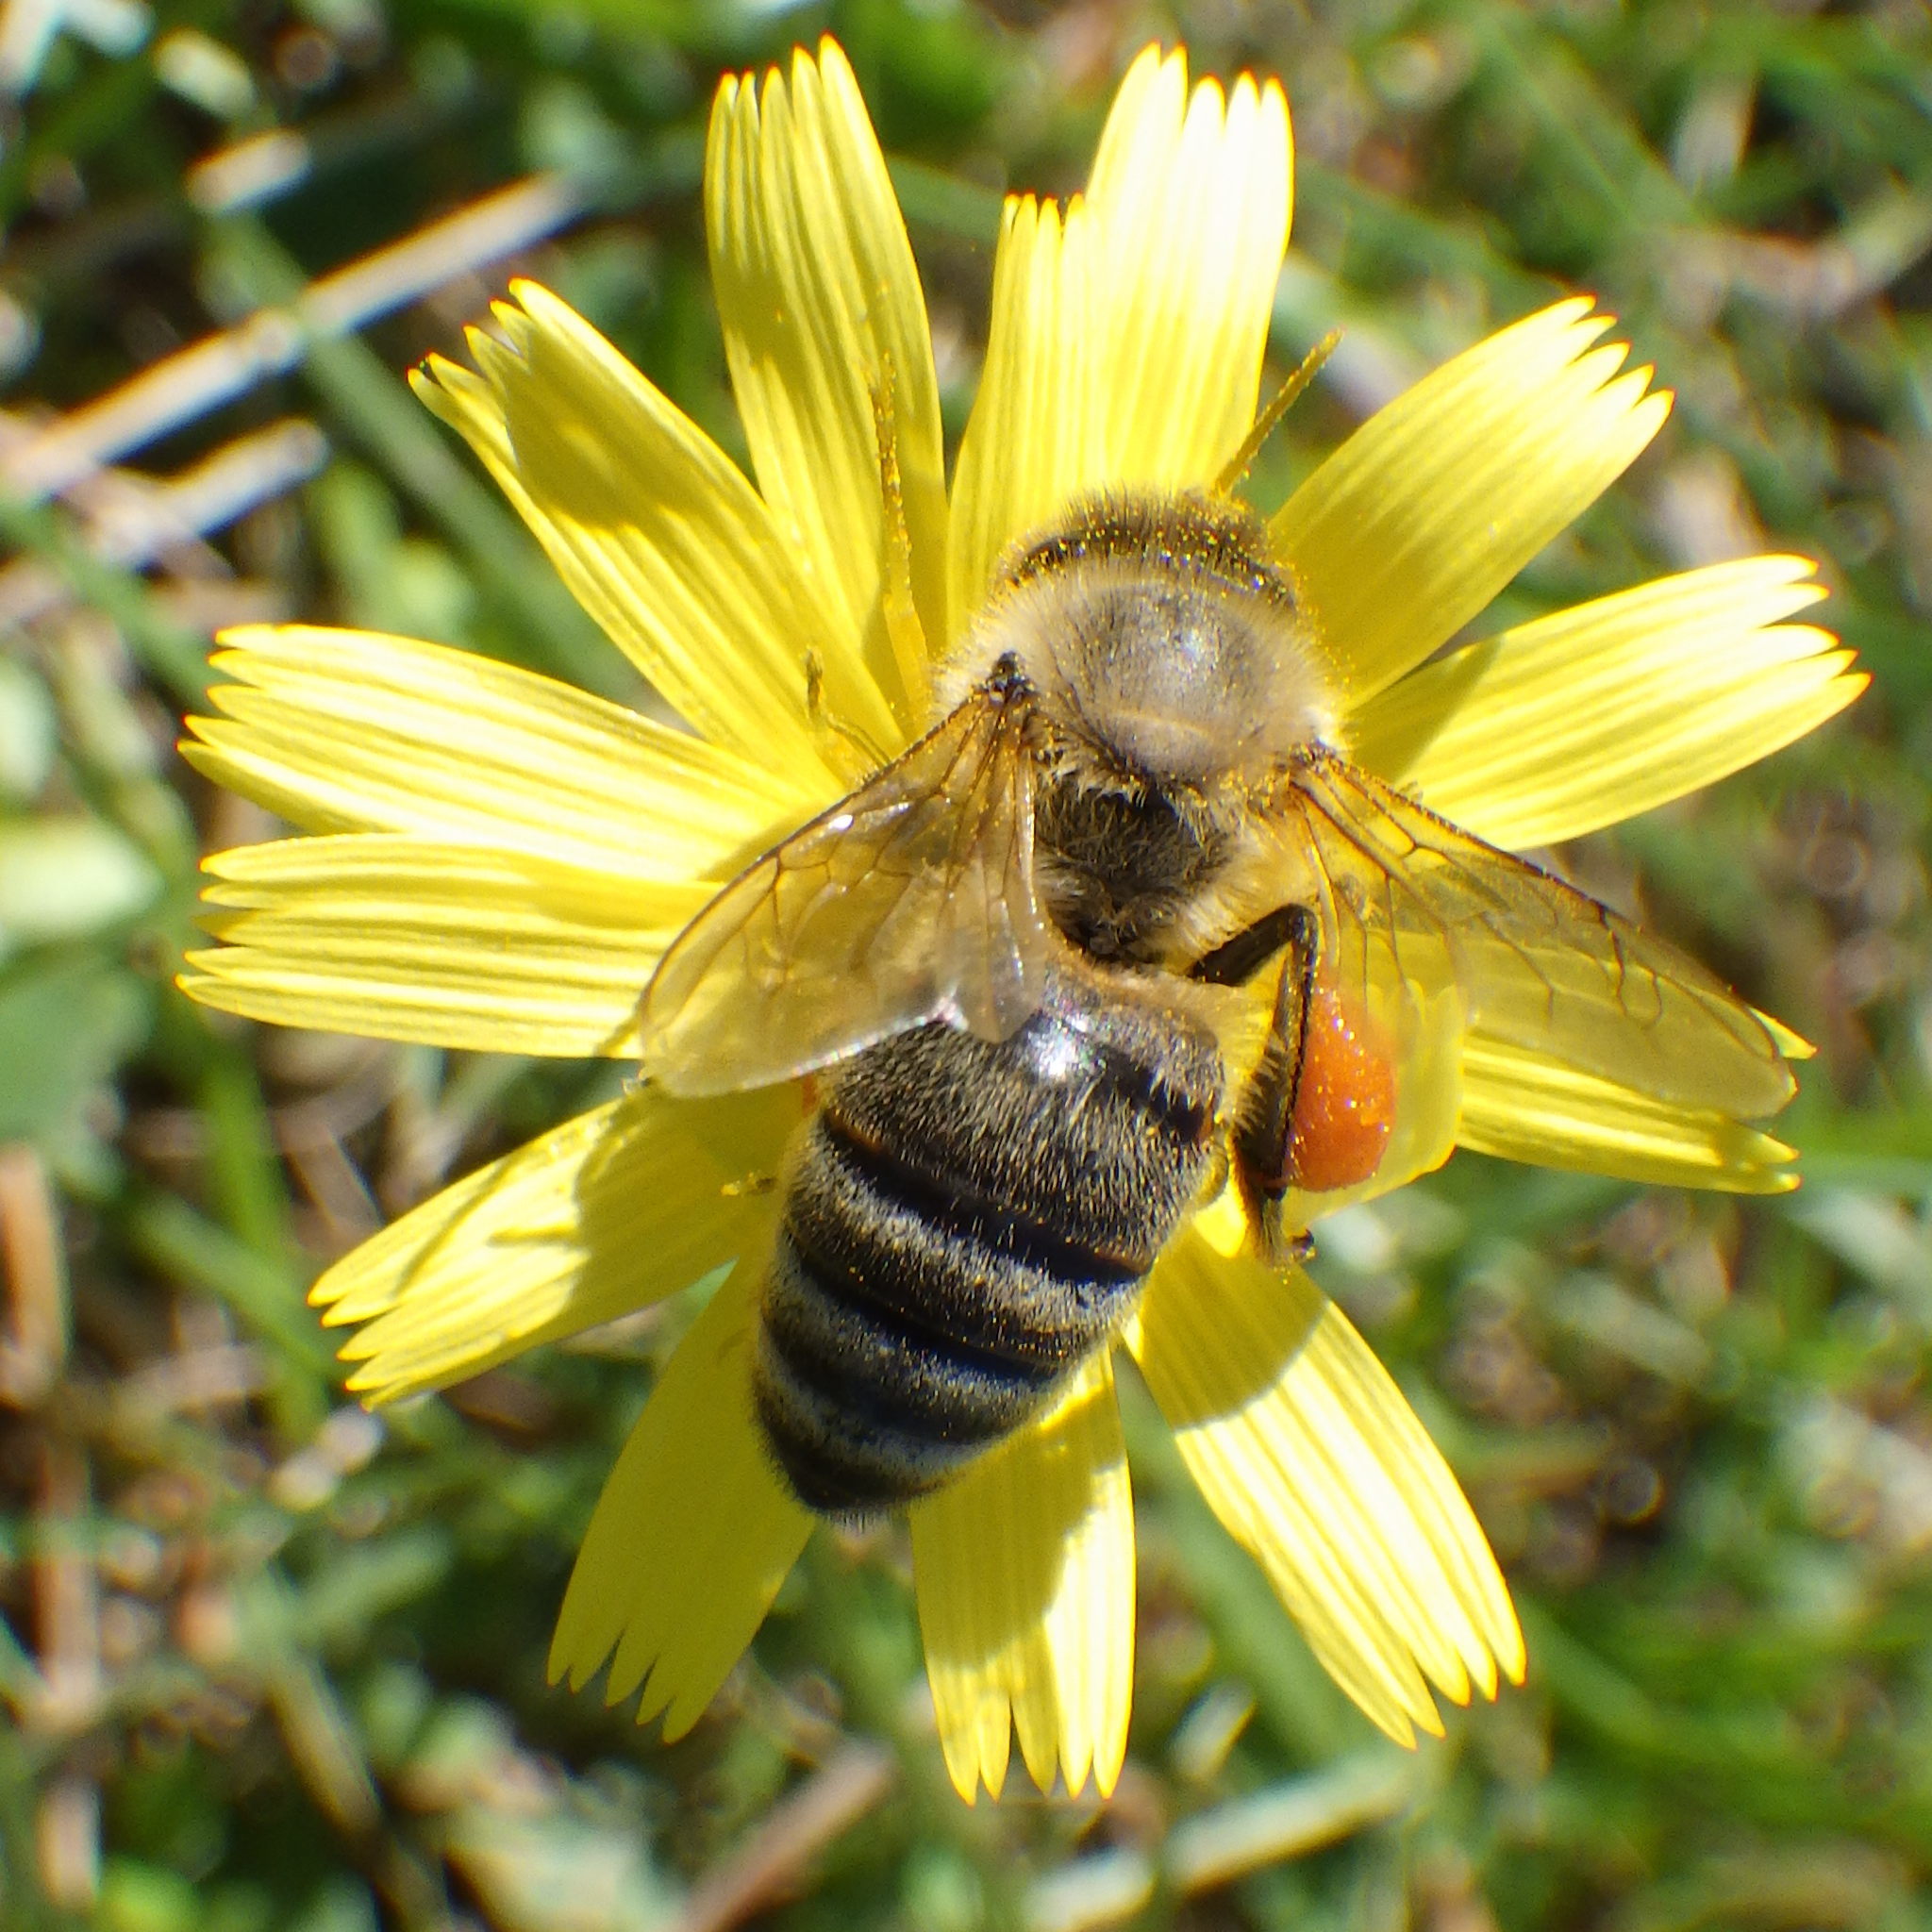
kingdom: Animalia
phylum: Arthropoda
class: Insecta
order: Hymenoptera
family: Apidae
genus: Apis
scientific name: Apis mellifera
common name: Honey bee
